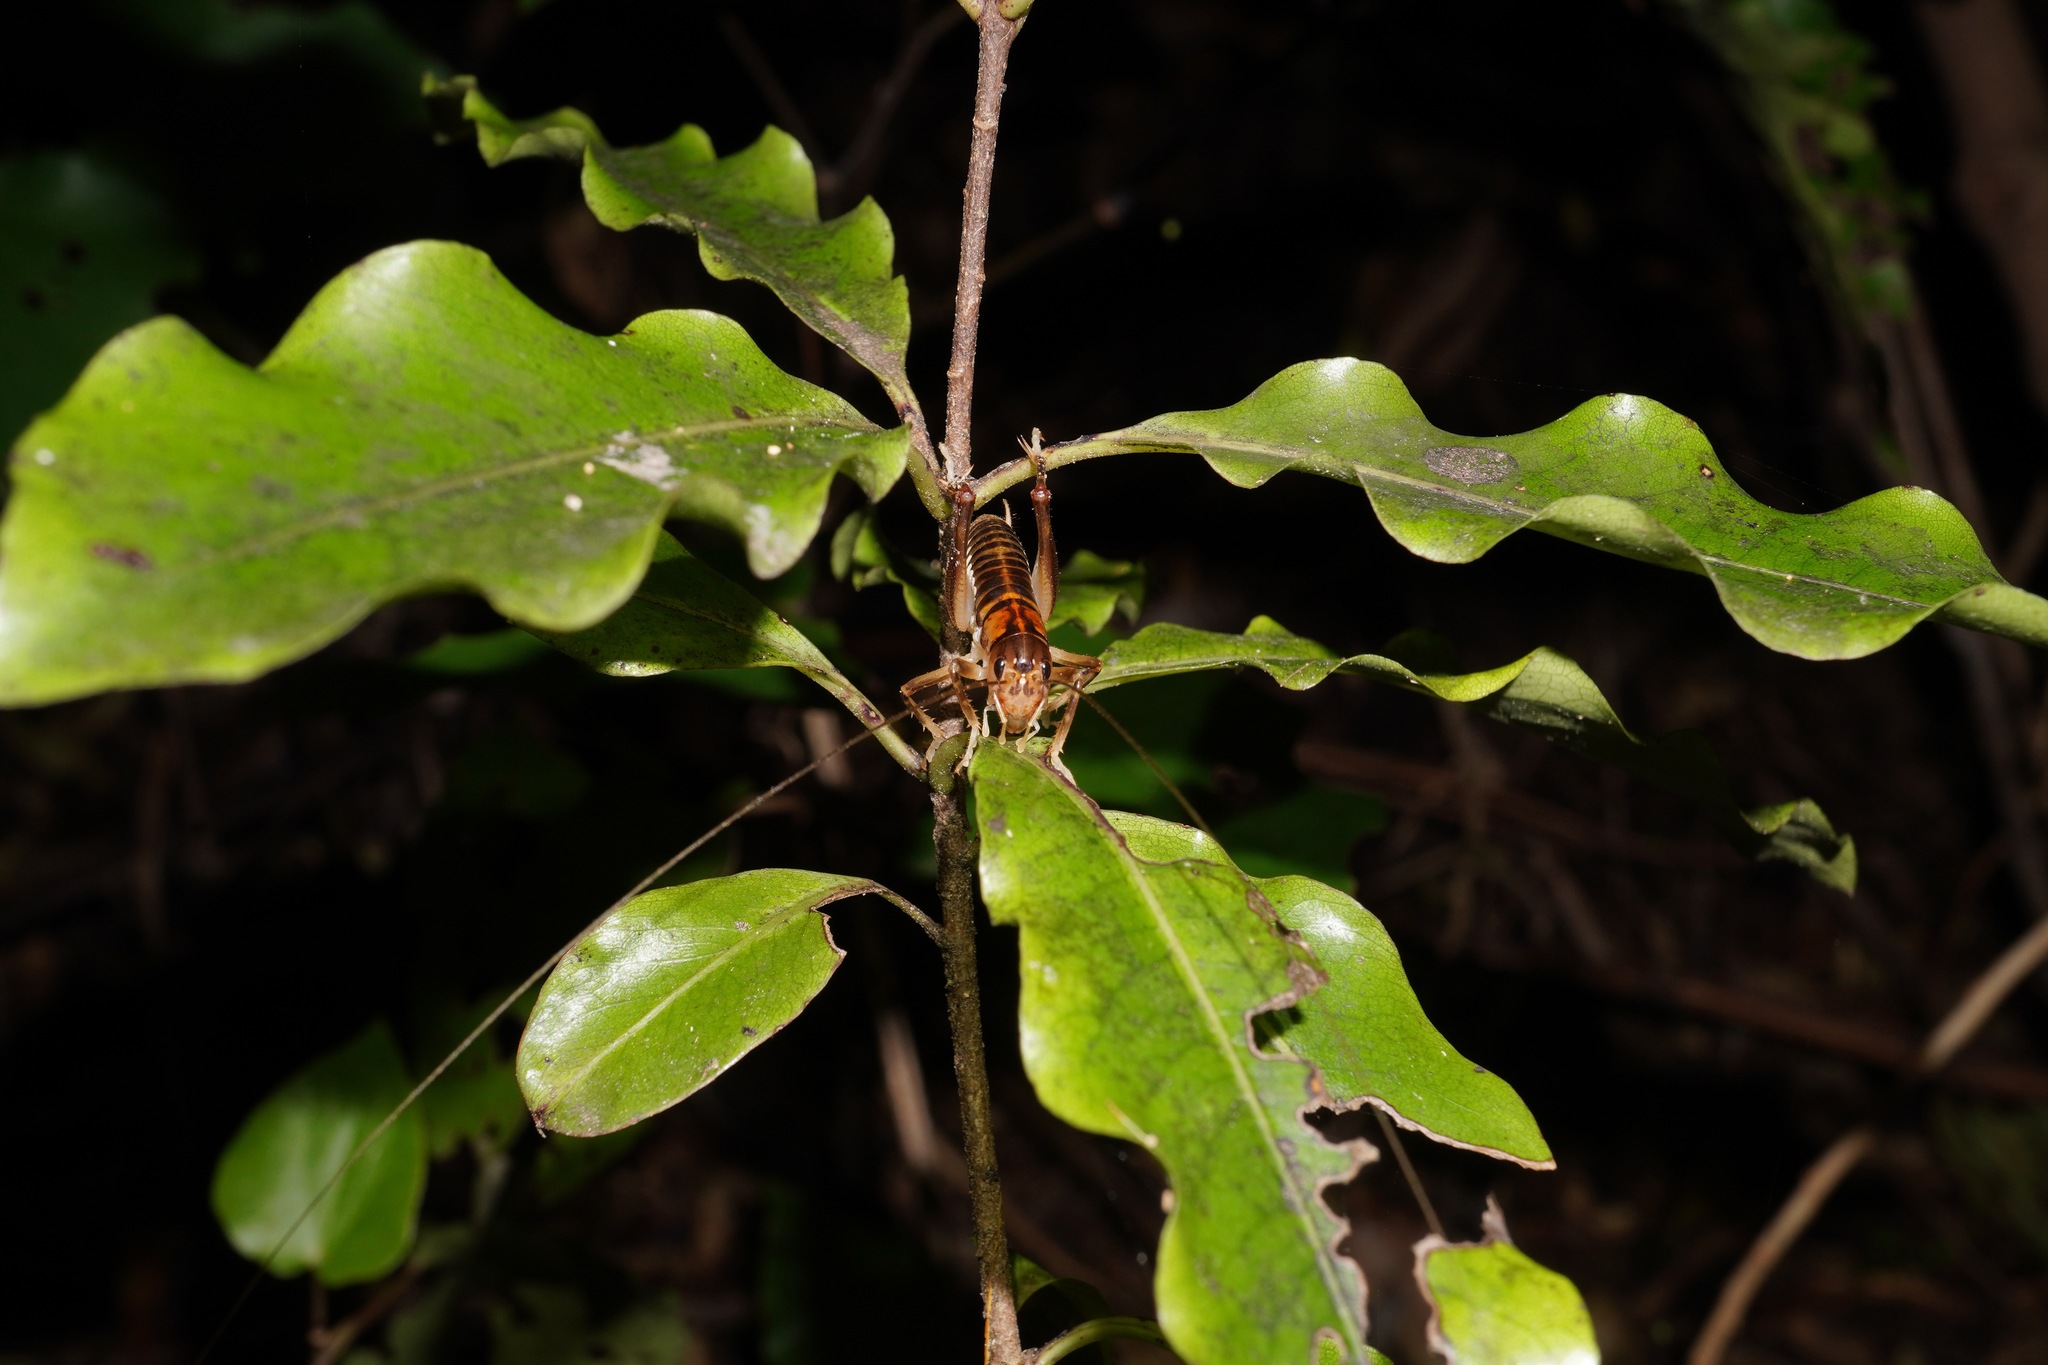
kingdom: Animalia
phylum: Arthropoda
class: Insecta
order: Orthoptera
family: Anostostomatidae
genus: Hemiandrus
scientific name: Hemiandrus pallitarsis
